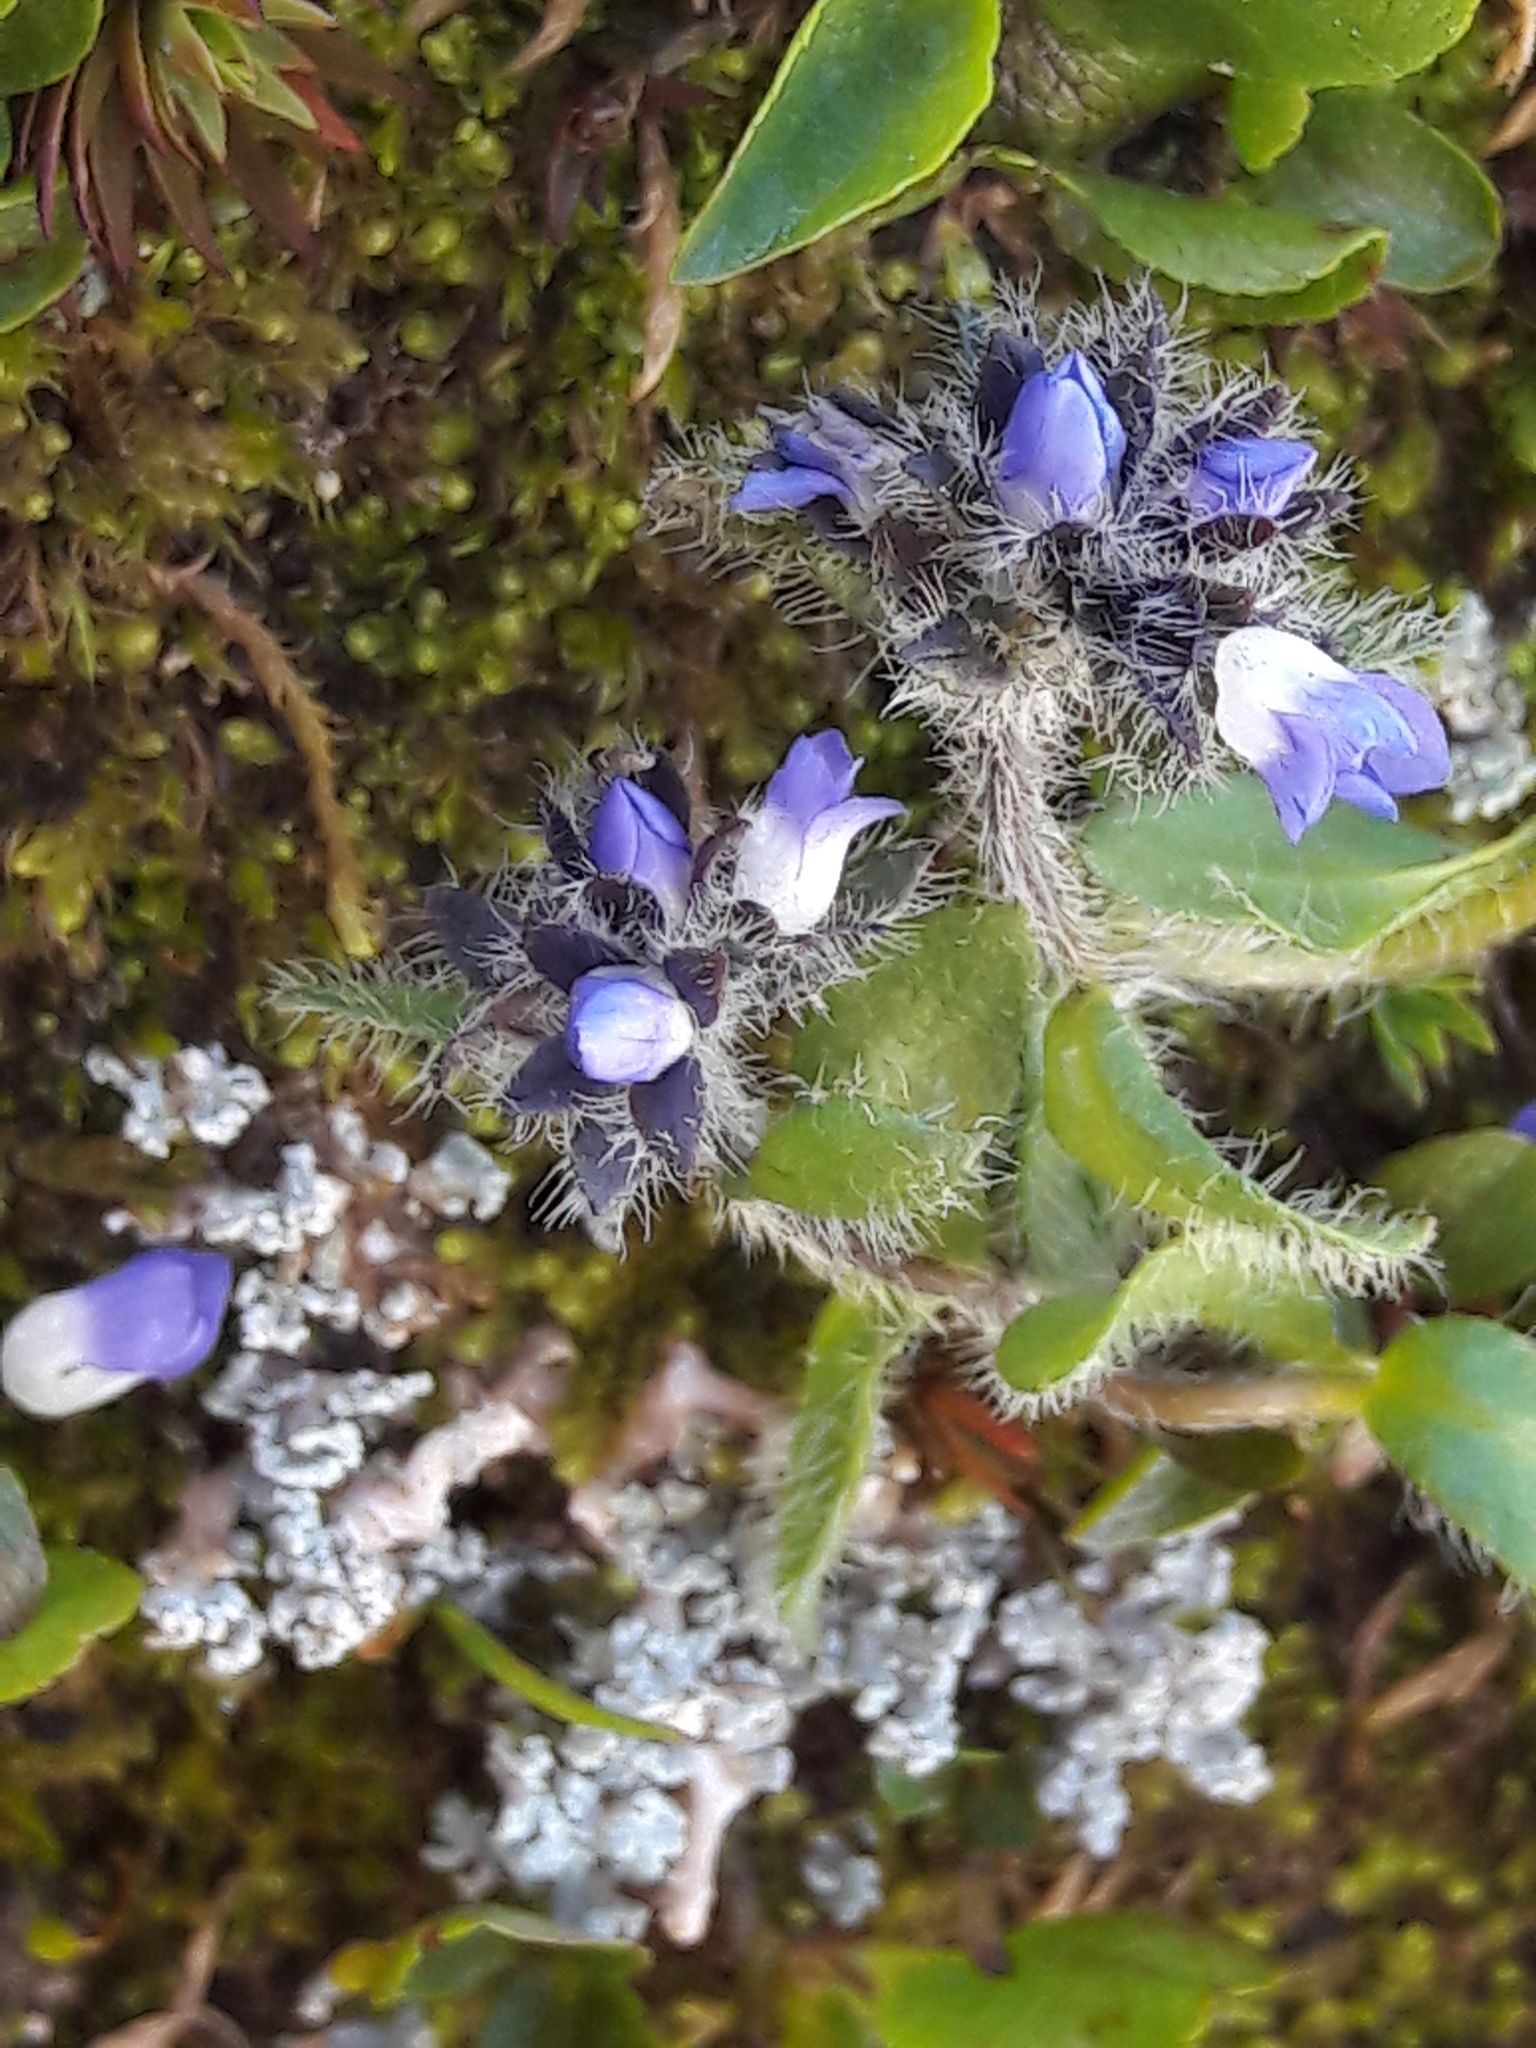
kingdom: Plantae
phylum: Tracheophyta
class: Magnoliopsida
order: Lamiales
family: Plantaginaceae
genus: Veronica
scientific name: Veronica alpina
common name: Alpine speedwell
